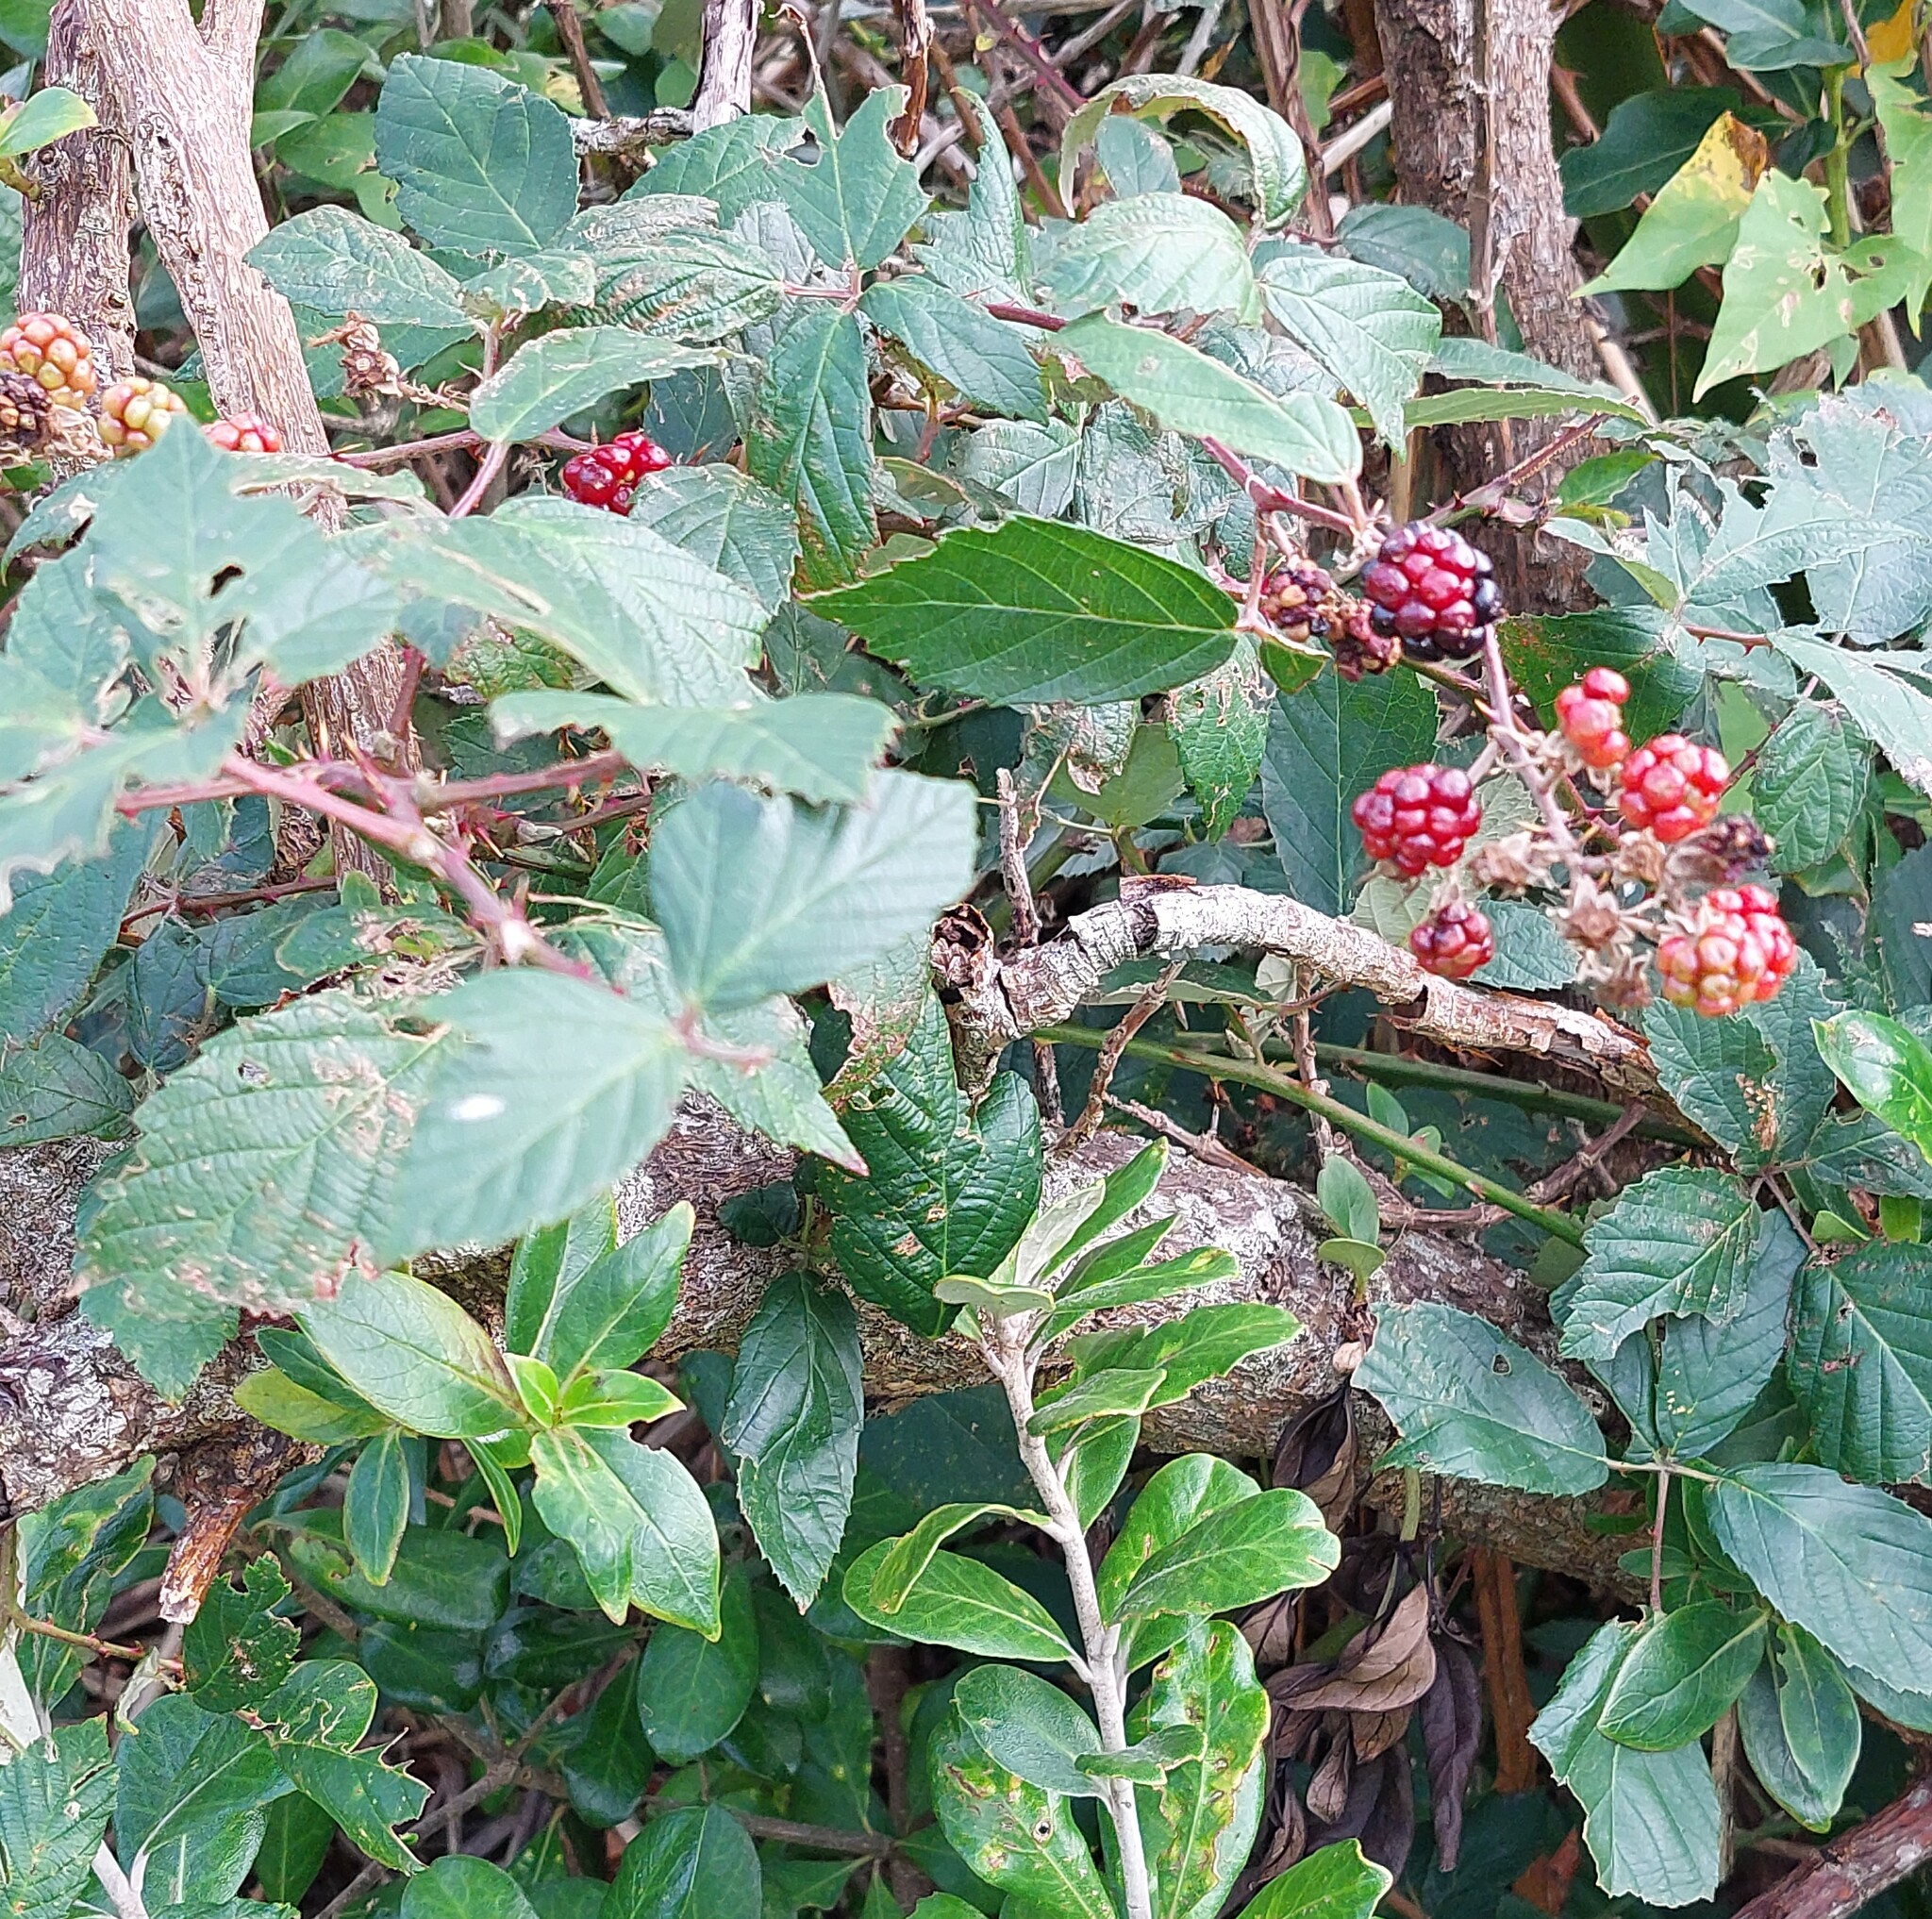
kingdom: Plantae
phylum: Tracheophyta
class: Magnoliopsida
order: Rosales
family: Rosaceae
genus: Rubus
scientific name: Rubus fruticosus
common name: Blackberry, bramble
